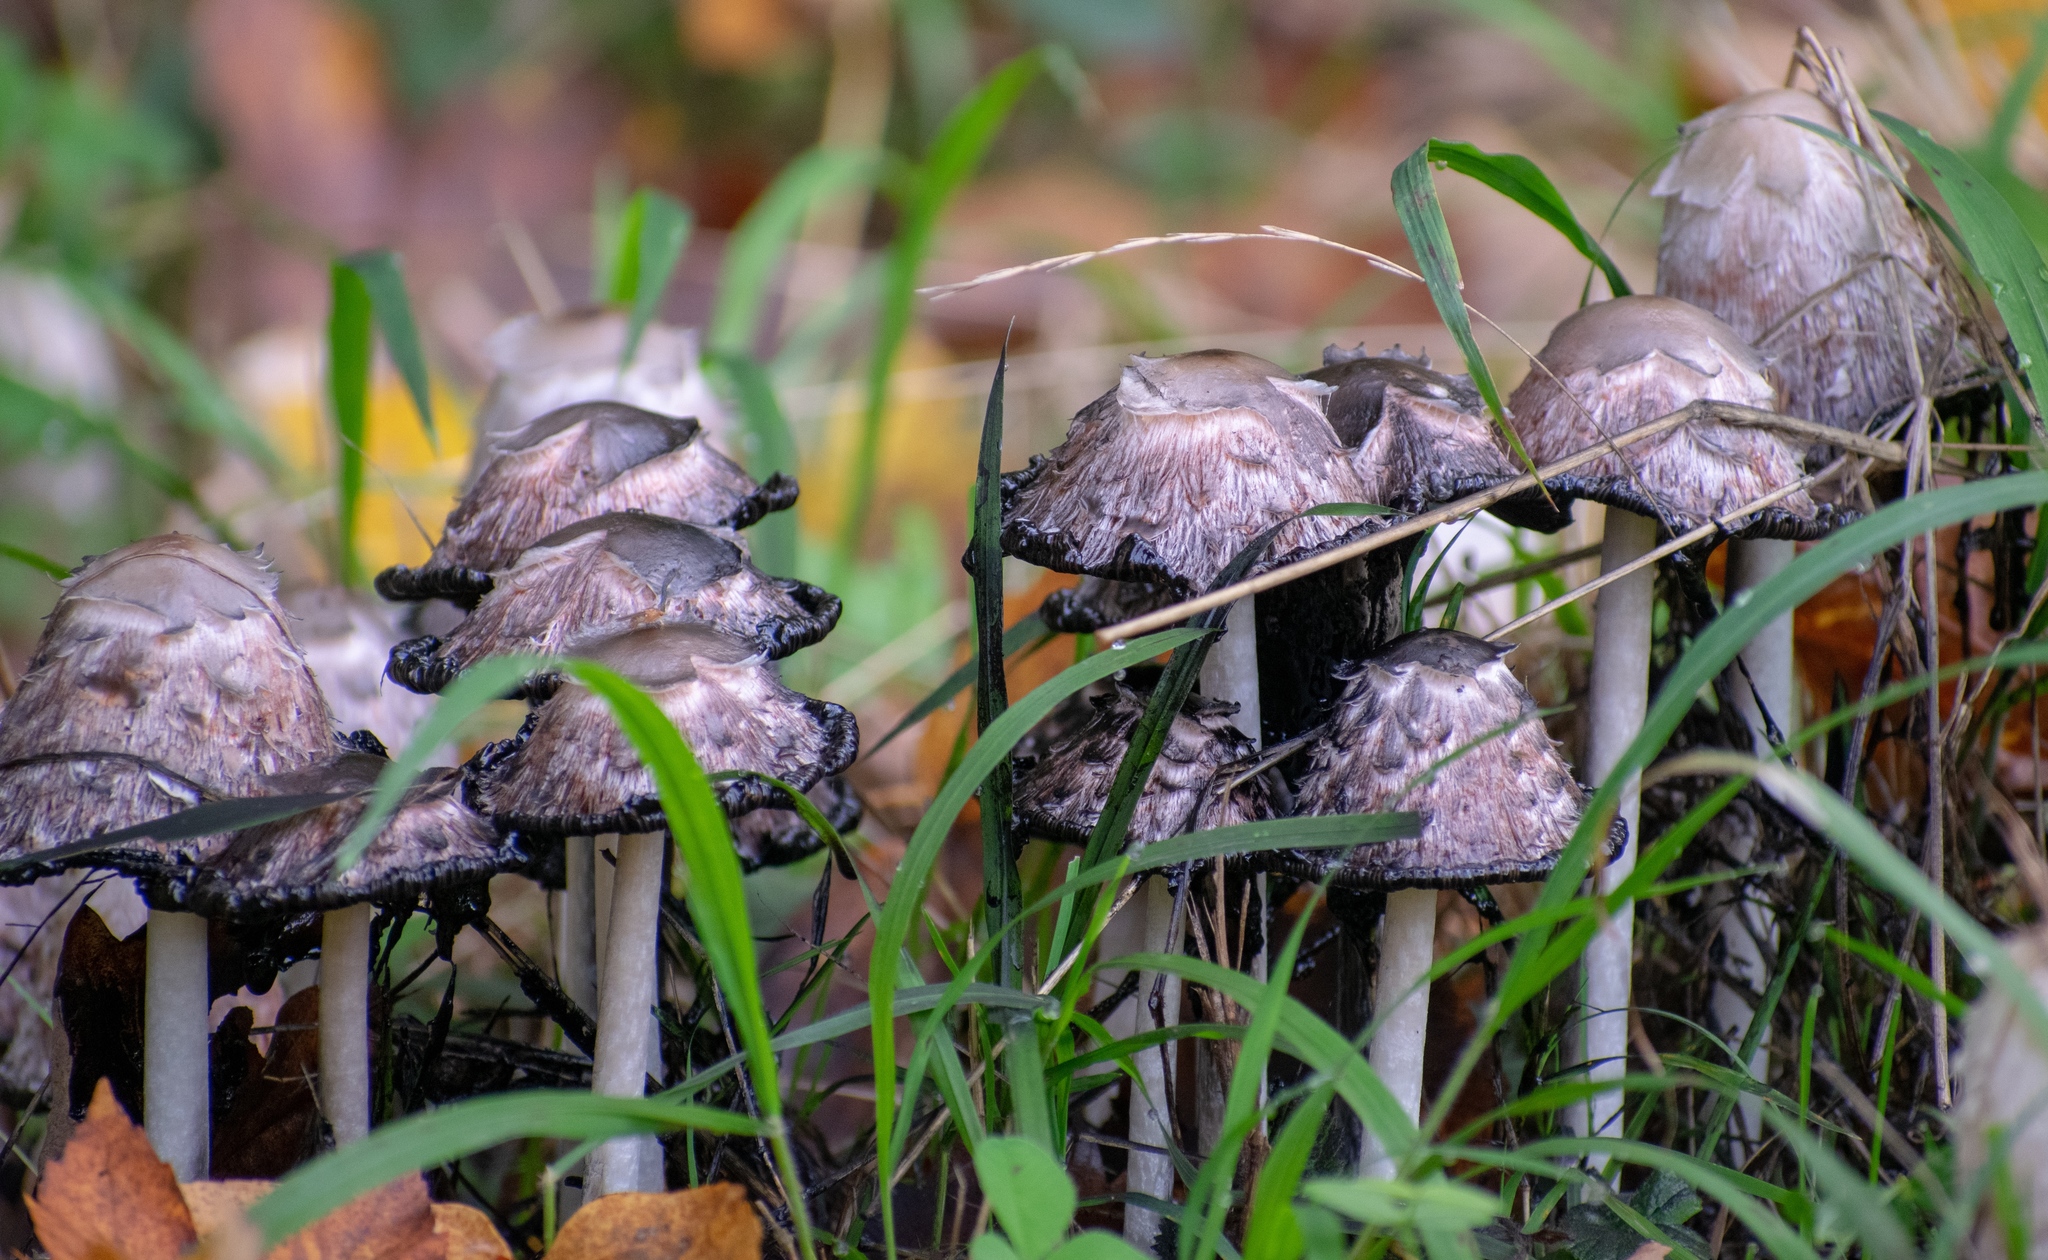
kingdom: Fungi
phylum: Basidiomycota
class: Agaricomycetes
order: Agaricales
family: Agaricaceae
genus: Coprinus
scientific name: Coprinus comatus
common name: Lawyer's wig
